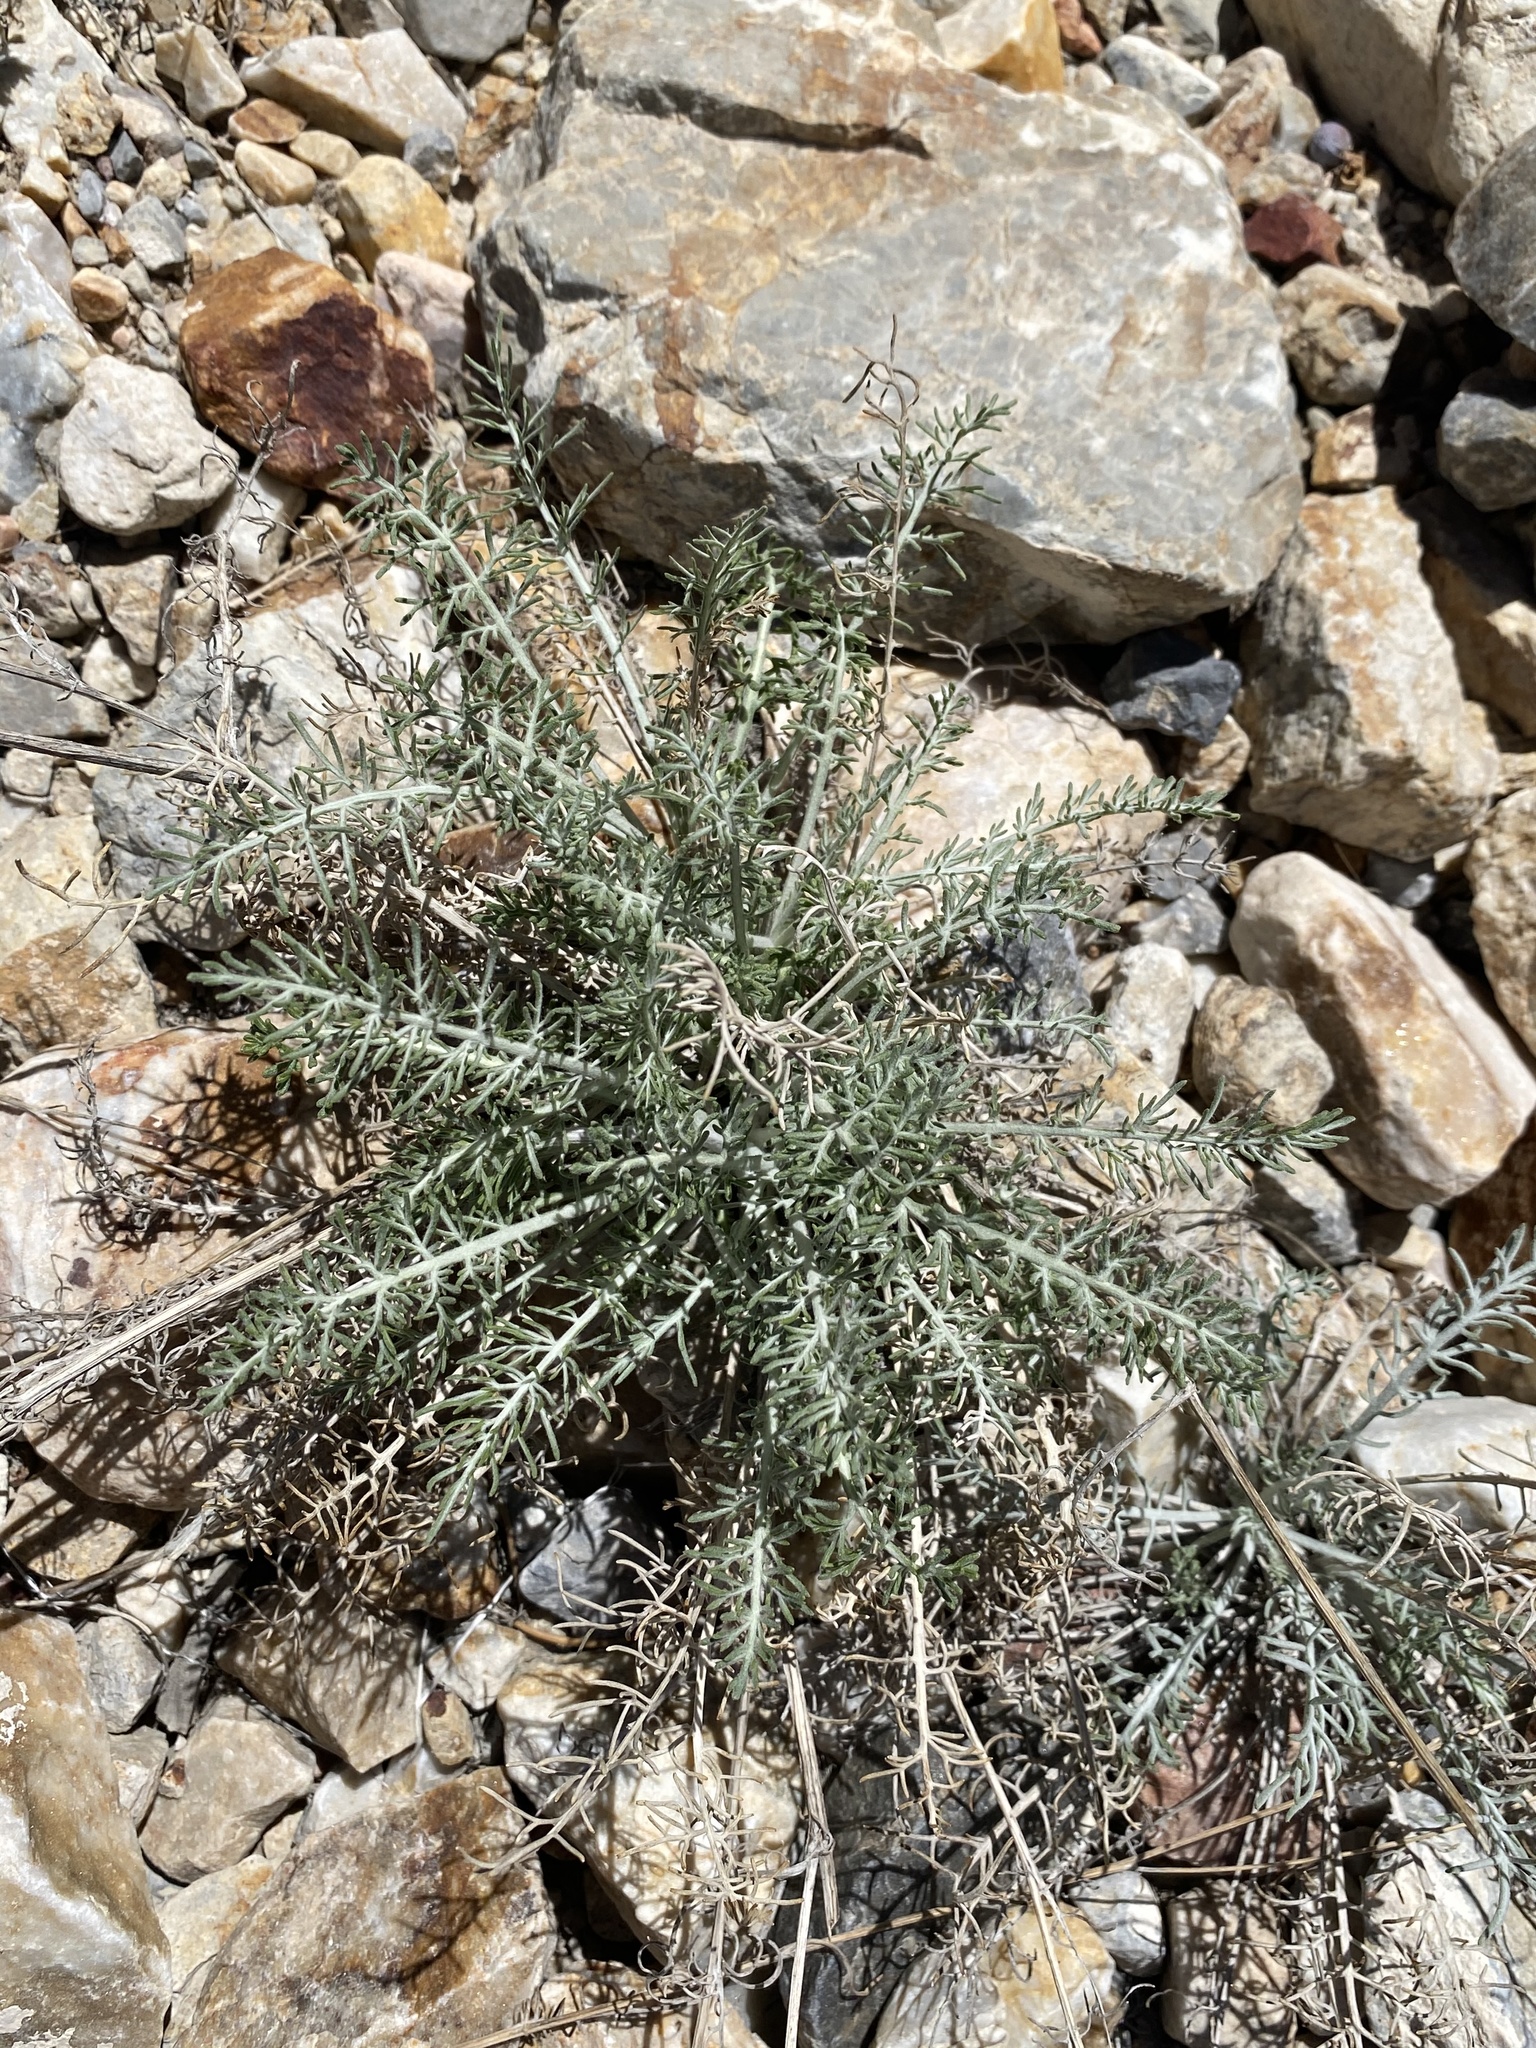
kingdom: Plantae
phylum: Tracheophyta
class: Magnoliopsida
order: Asterales
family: Asteraceae
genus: Hymenopappus
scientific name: Hymenopappus filifolius
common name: Columbia cutleaf
